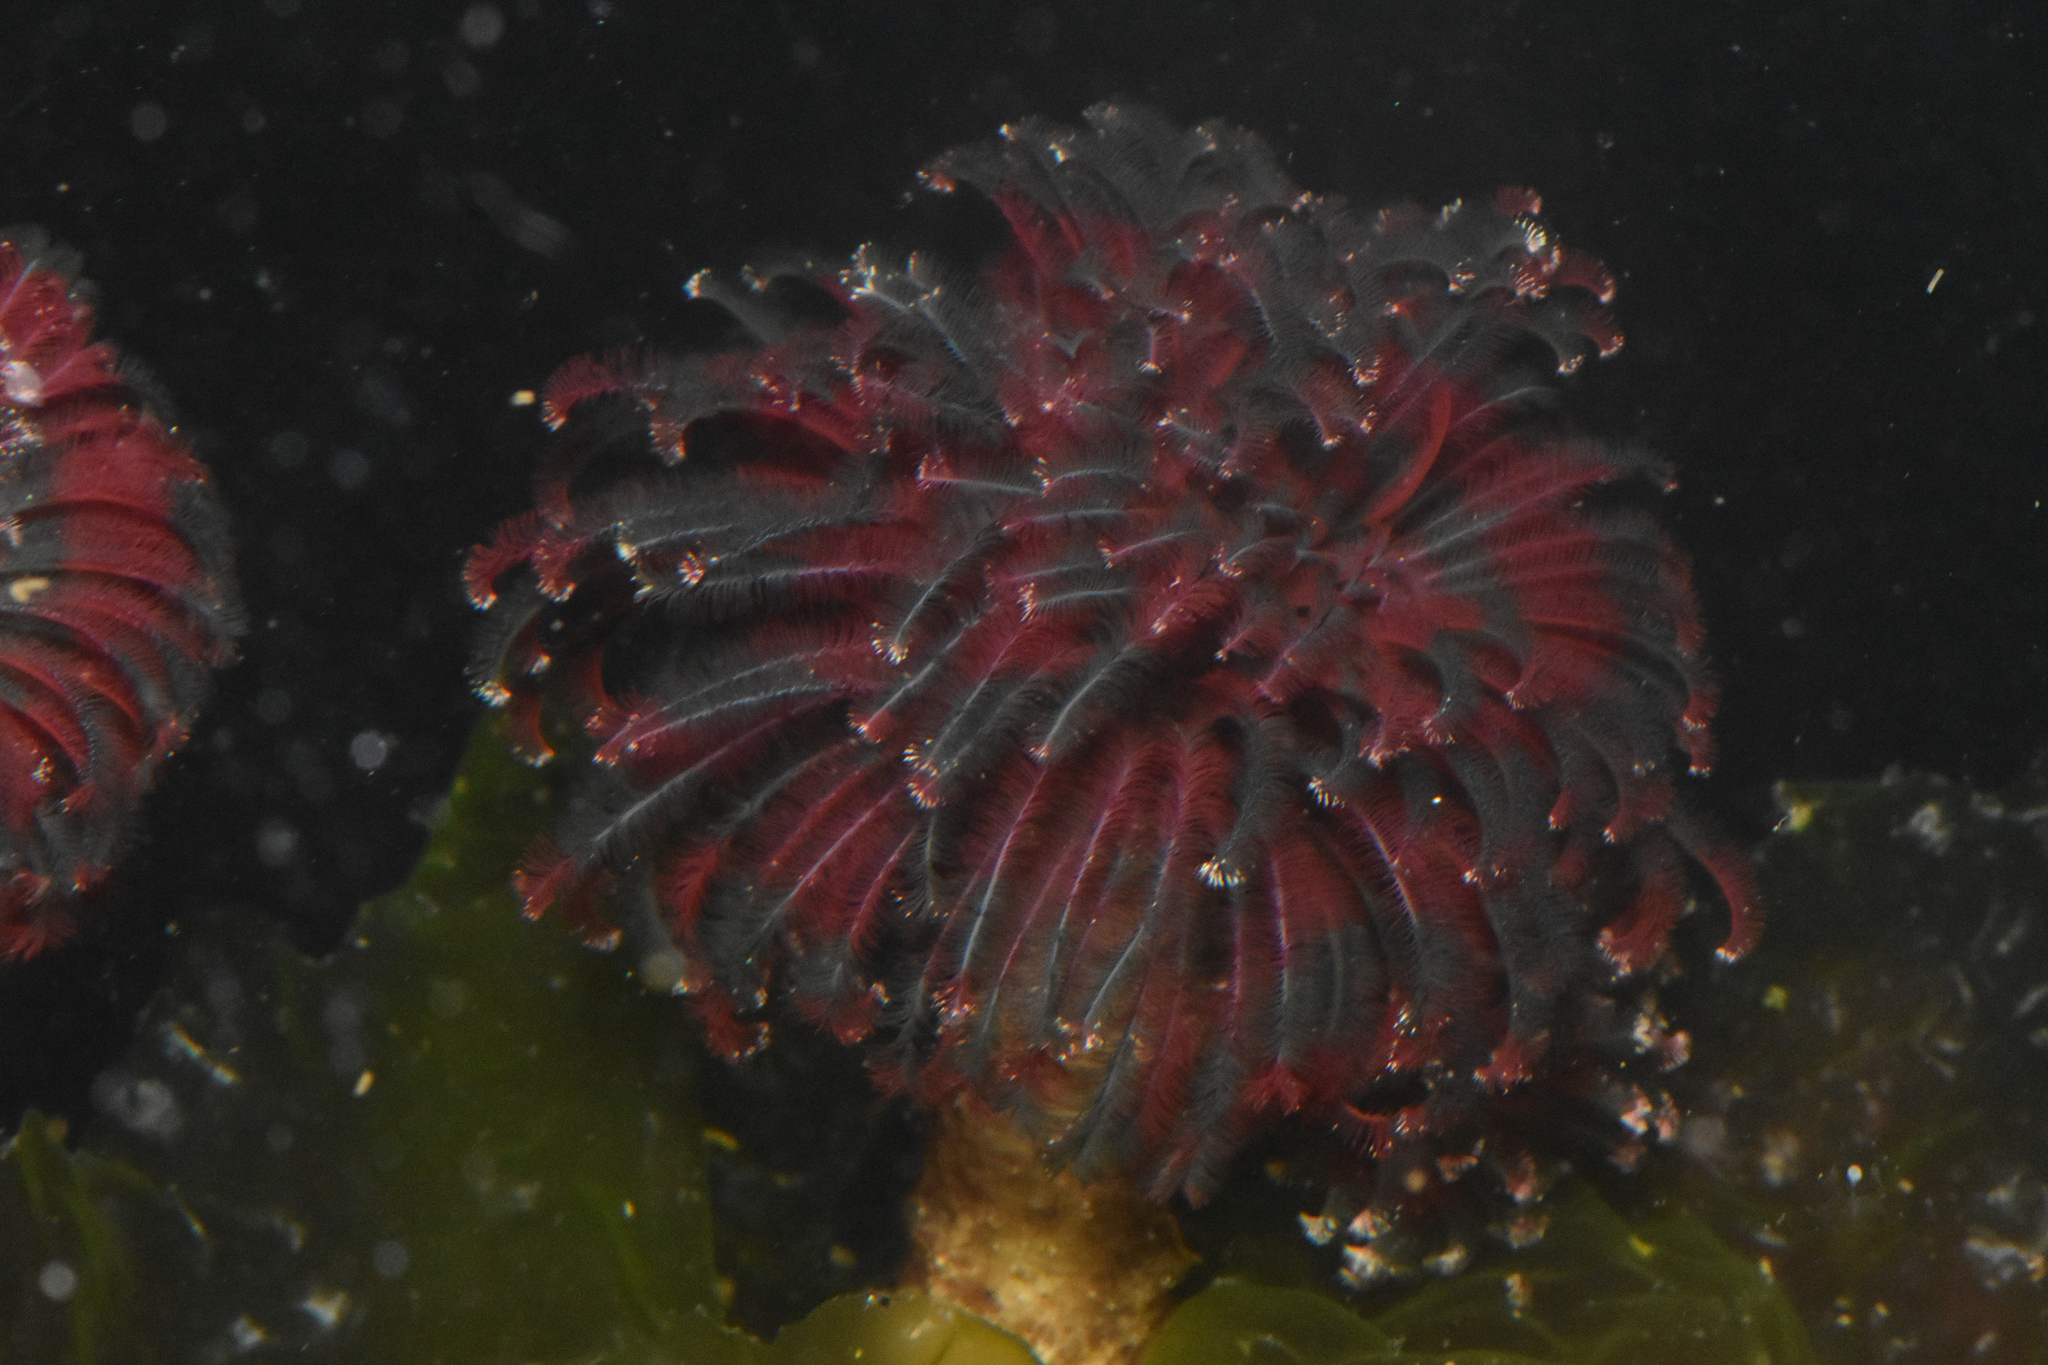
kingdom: Animalia
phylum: Annelida
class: Polychaeta
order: Sabellida
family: Sabellidae
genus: Eudistylia
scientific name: Eudistylia vancouveri
